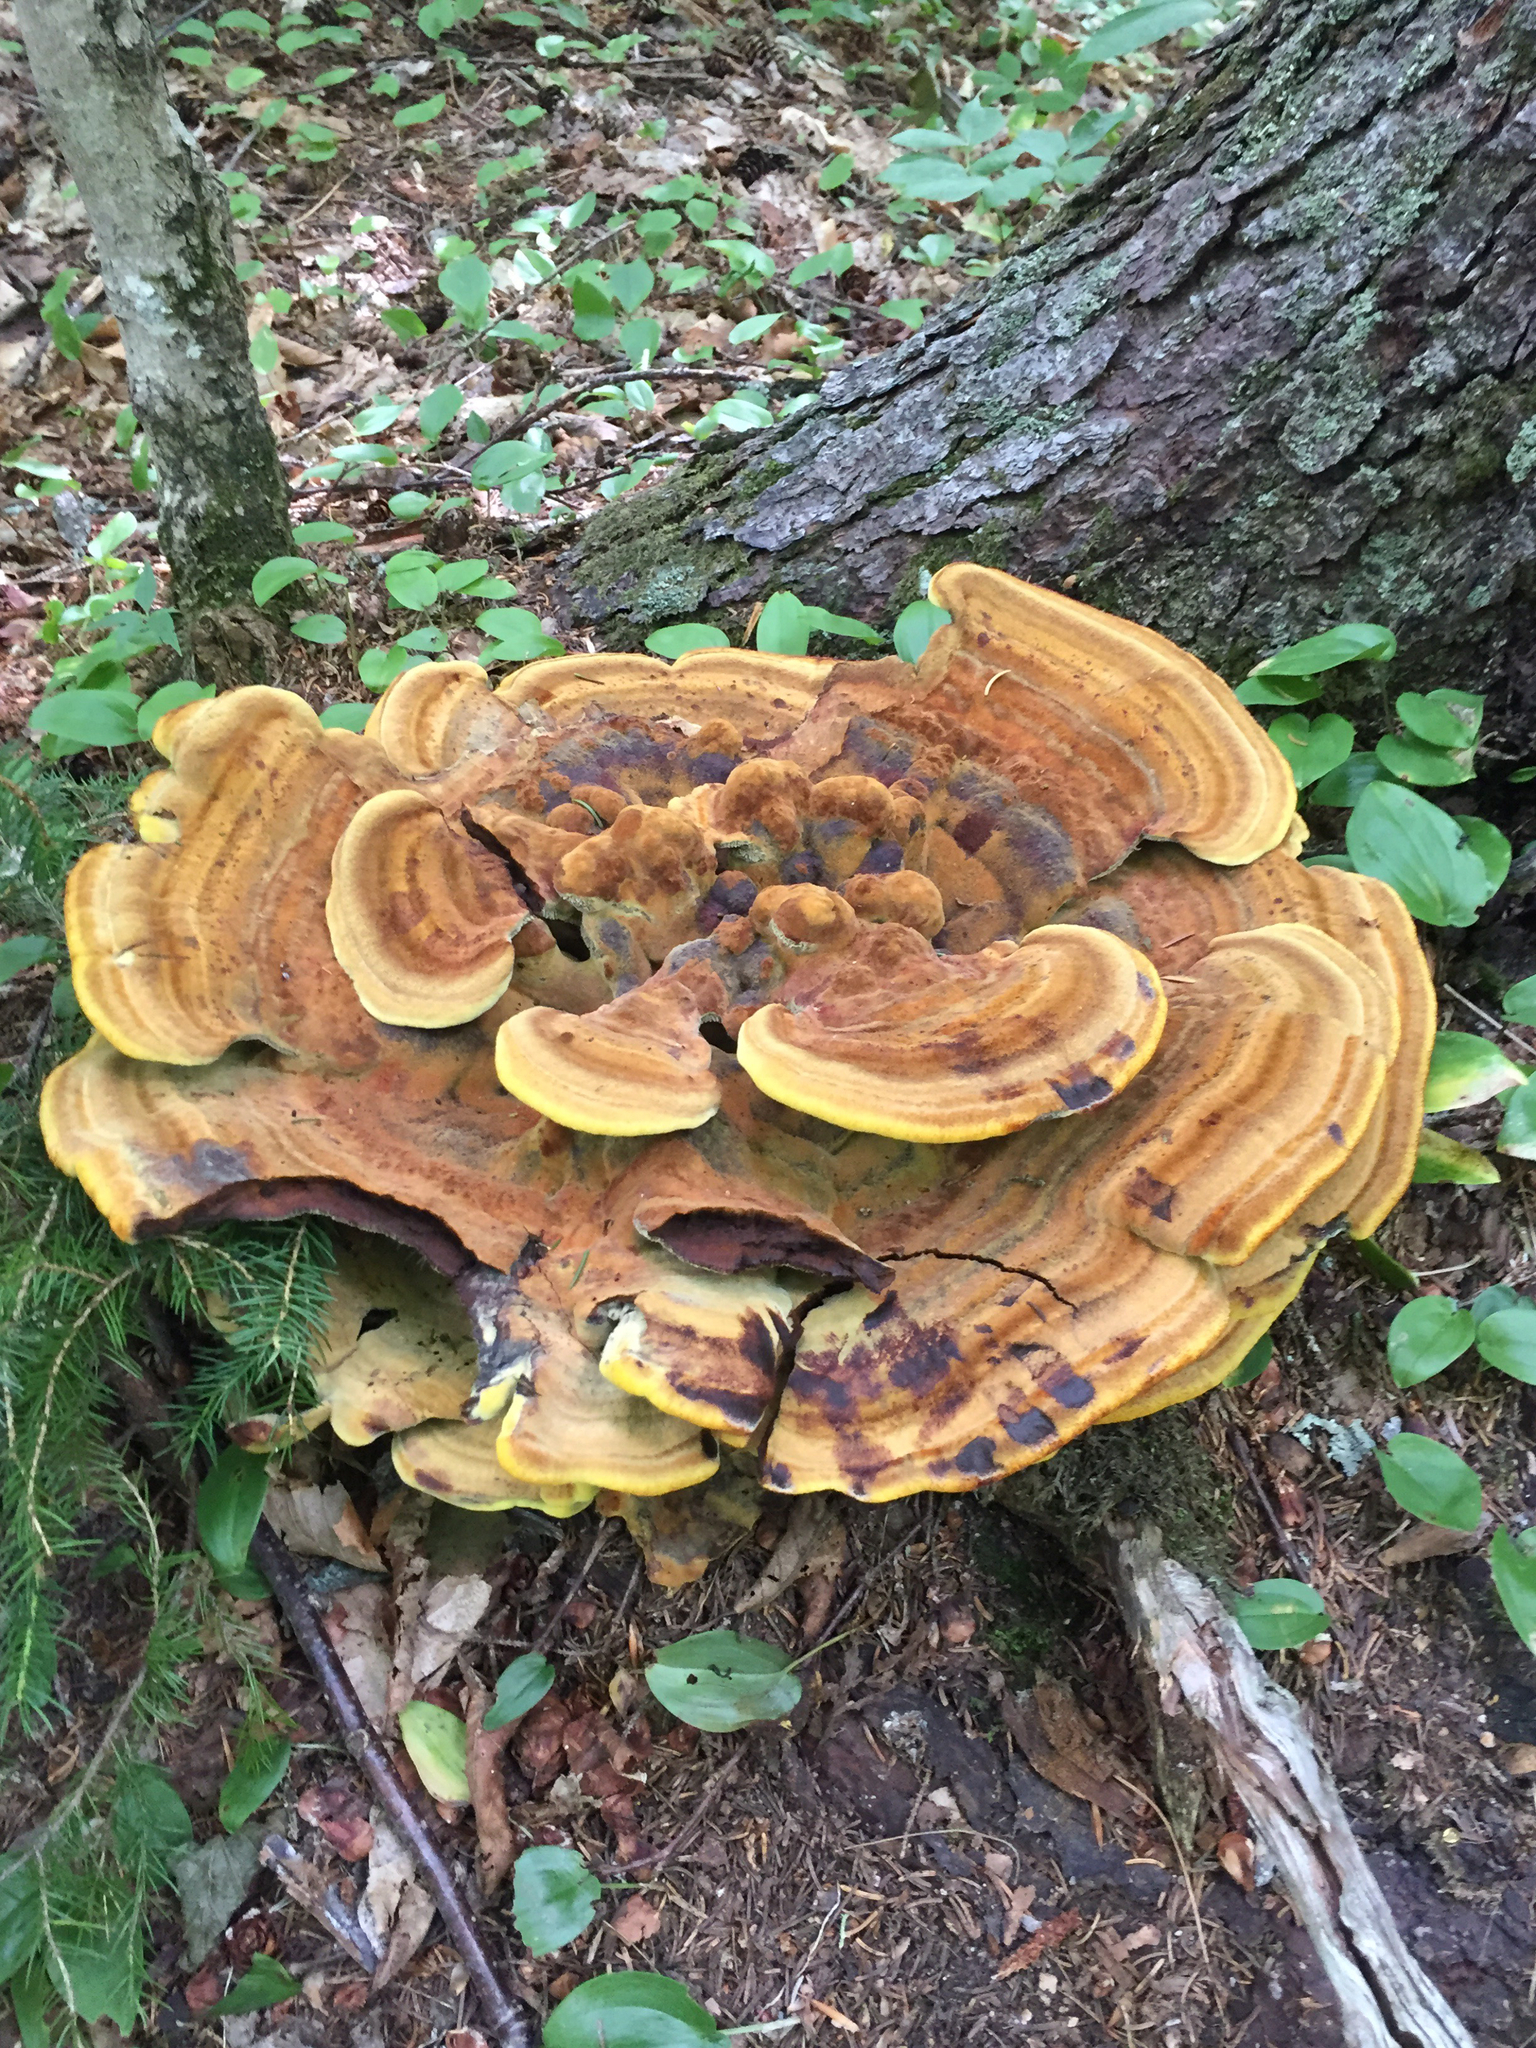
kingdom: Fungi
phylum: Basidiomycota
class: Agaricomycetes
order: Polyporales
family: Laetiporaceae
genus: Phaeolus
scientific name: Phaeolus schweinitzii
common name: Dyer's mazegill
